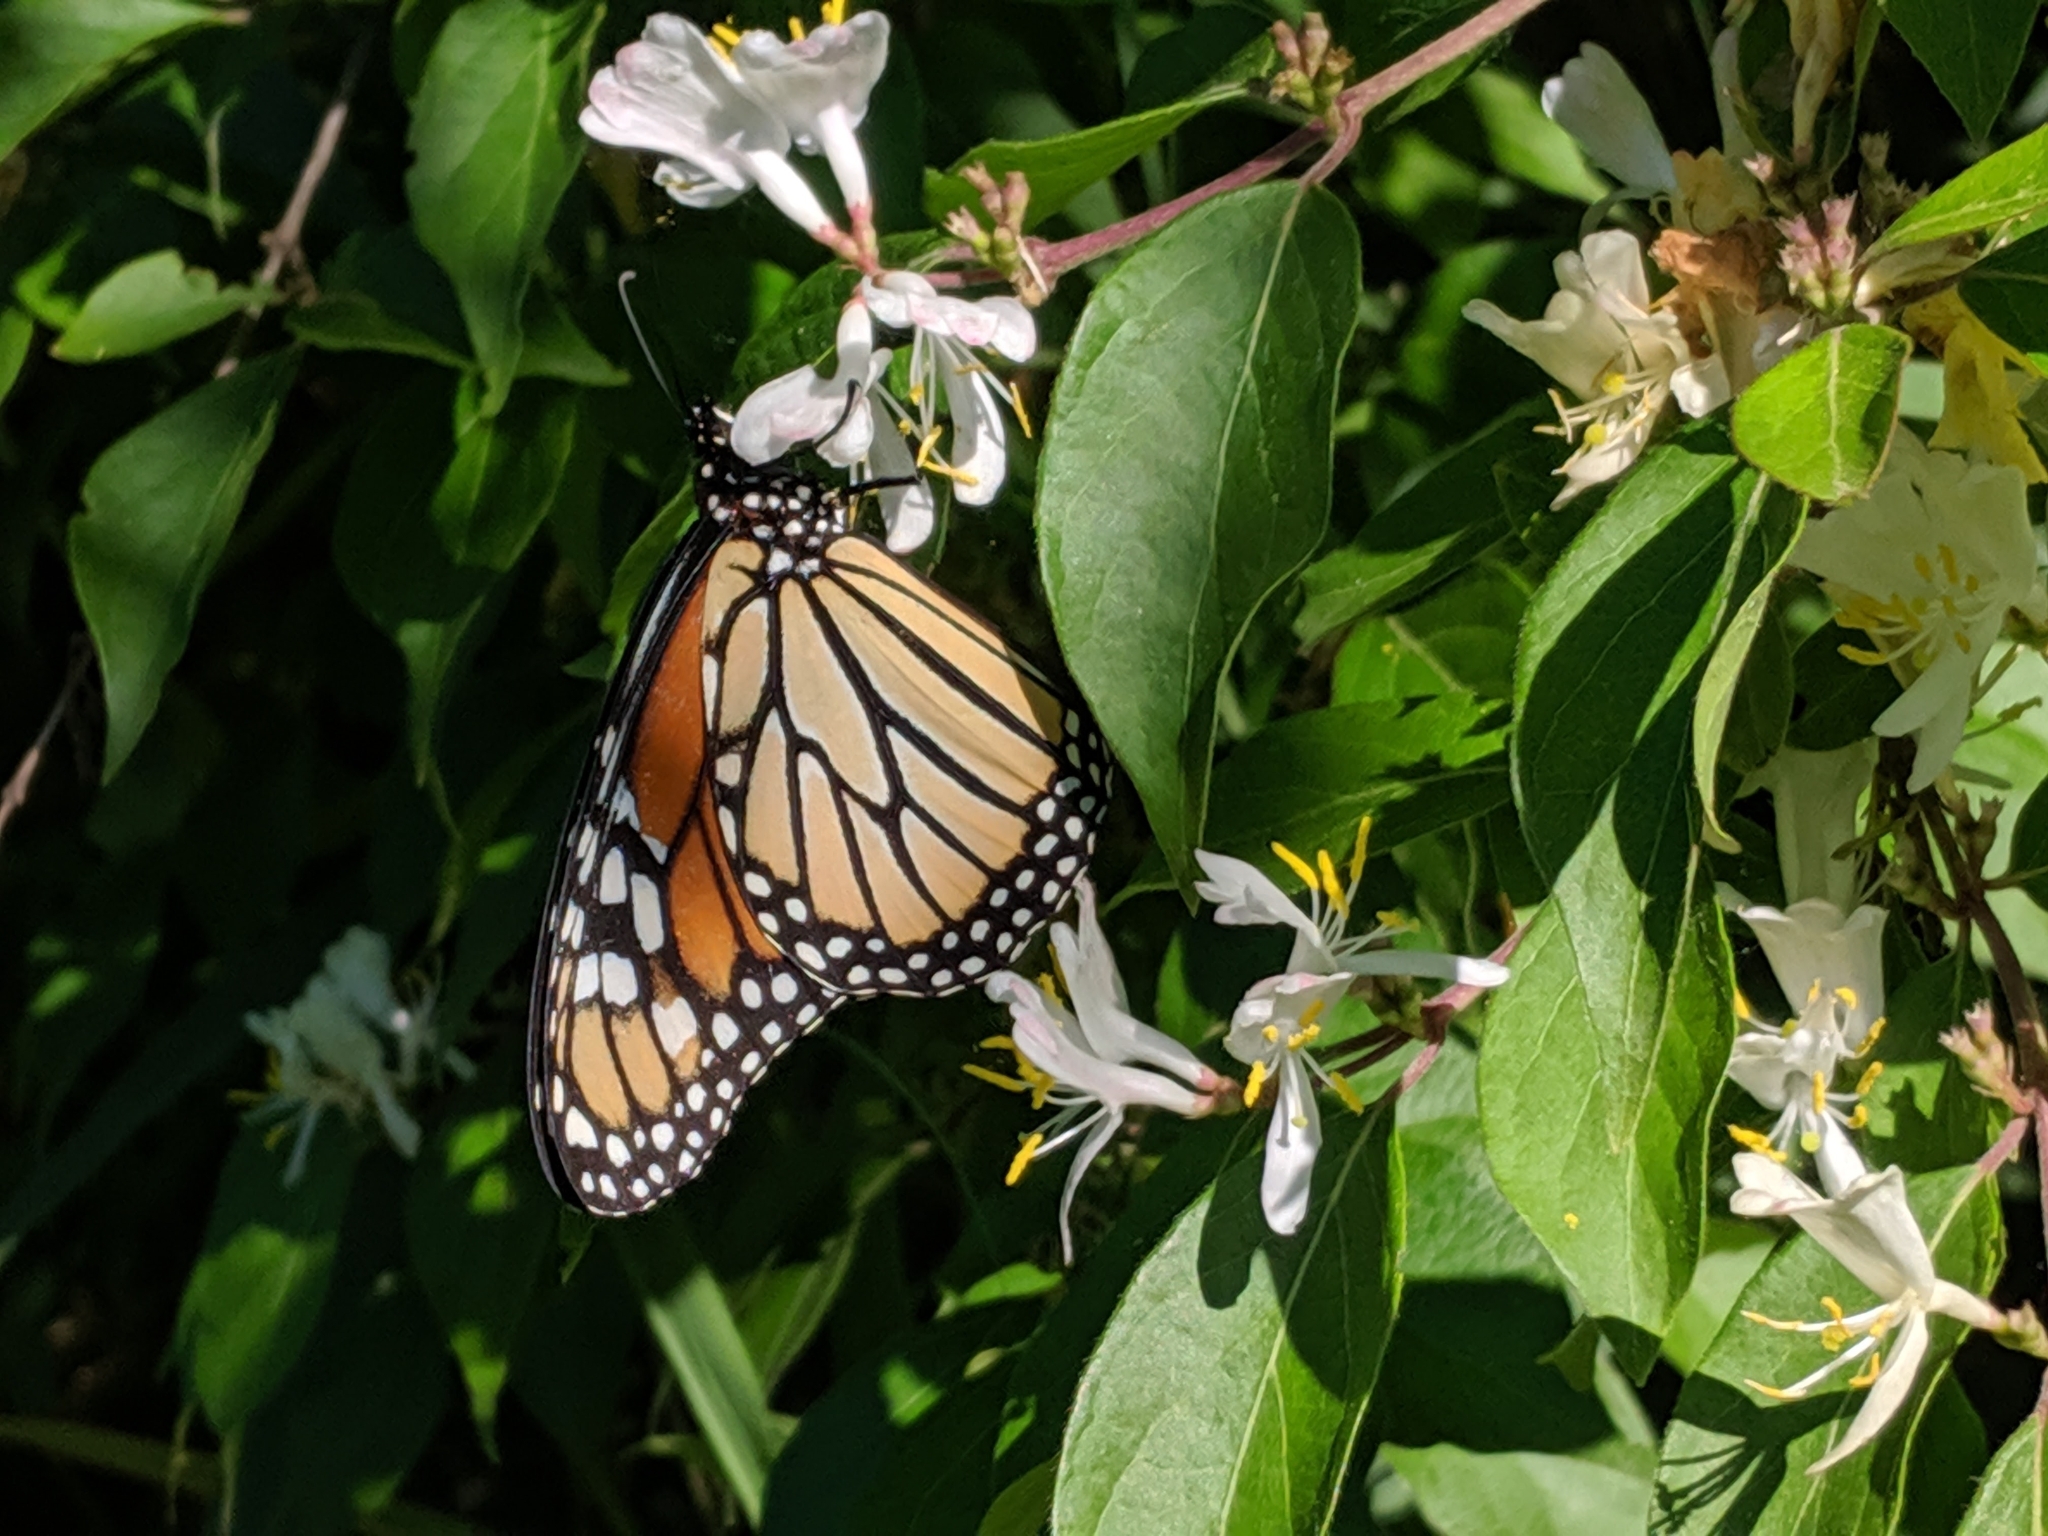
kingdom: Animalia
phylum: Arthropoda
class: Insecta
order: Lepidoptera
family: Nymphalidae
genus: Danaus
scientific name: Danaus plexippus
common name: Monarch
